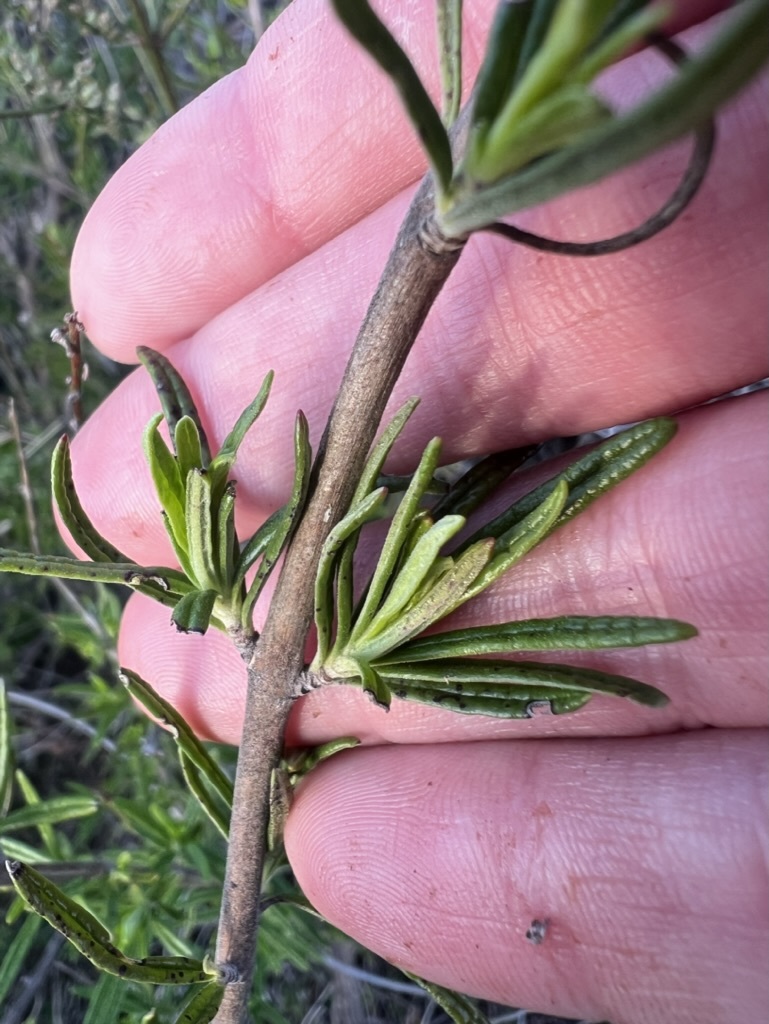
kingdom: Plantae
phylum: Tracheophyta
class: Magnoliopsida
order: Lamiales
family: Lamiaceae
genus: Trichostema
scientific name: Trichostema lanatum
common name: Woolly bluecurls
